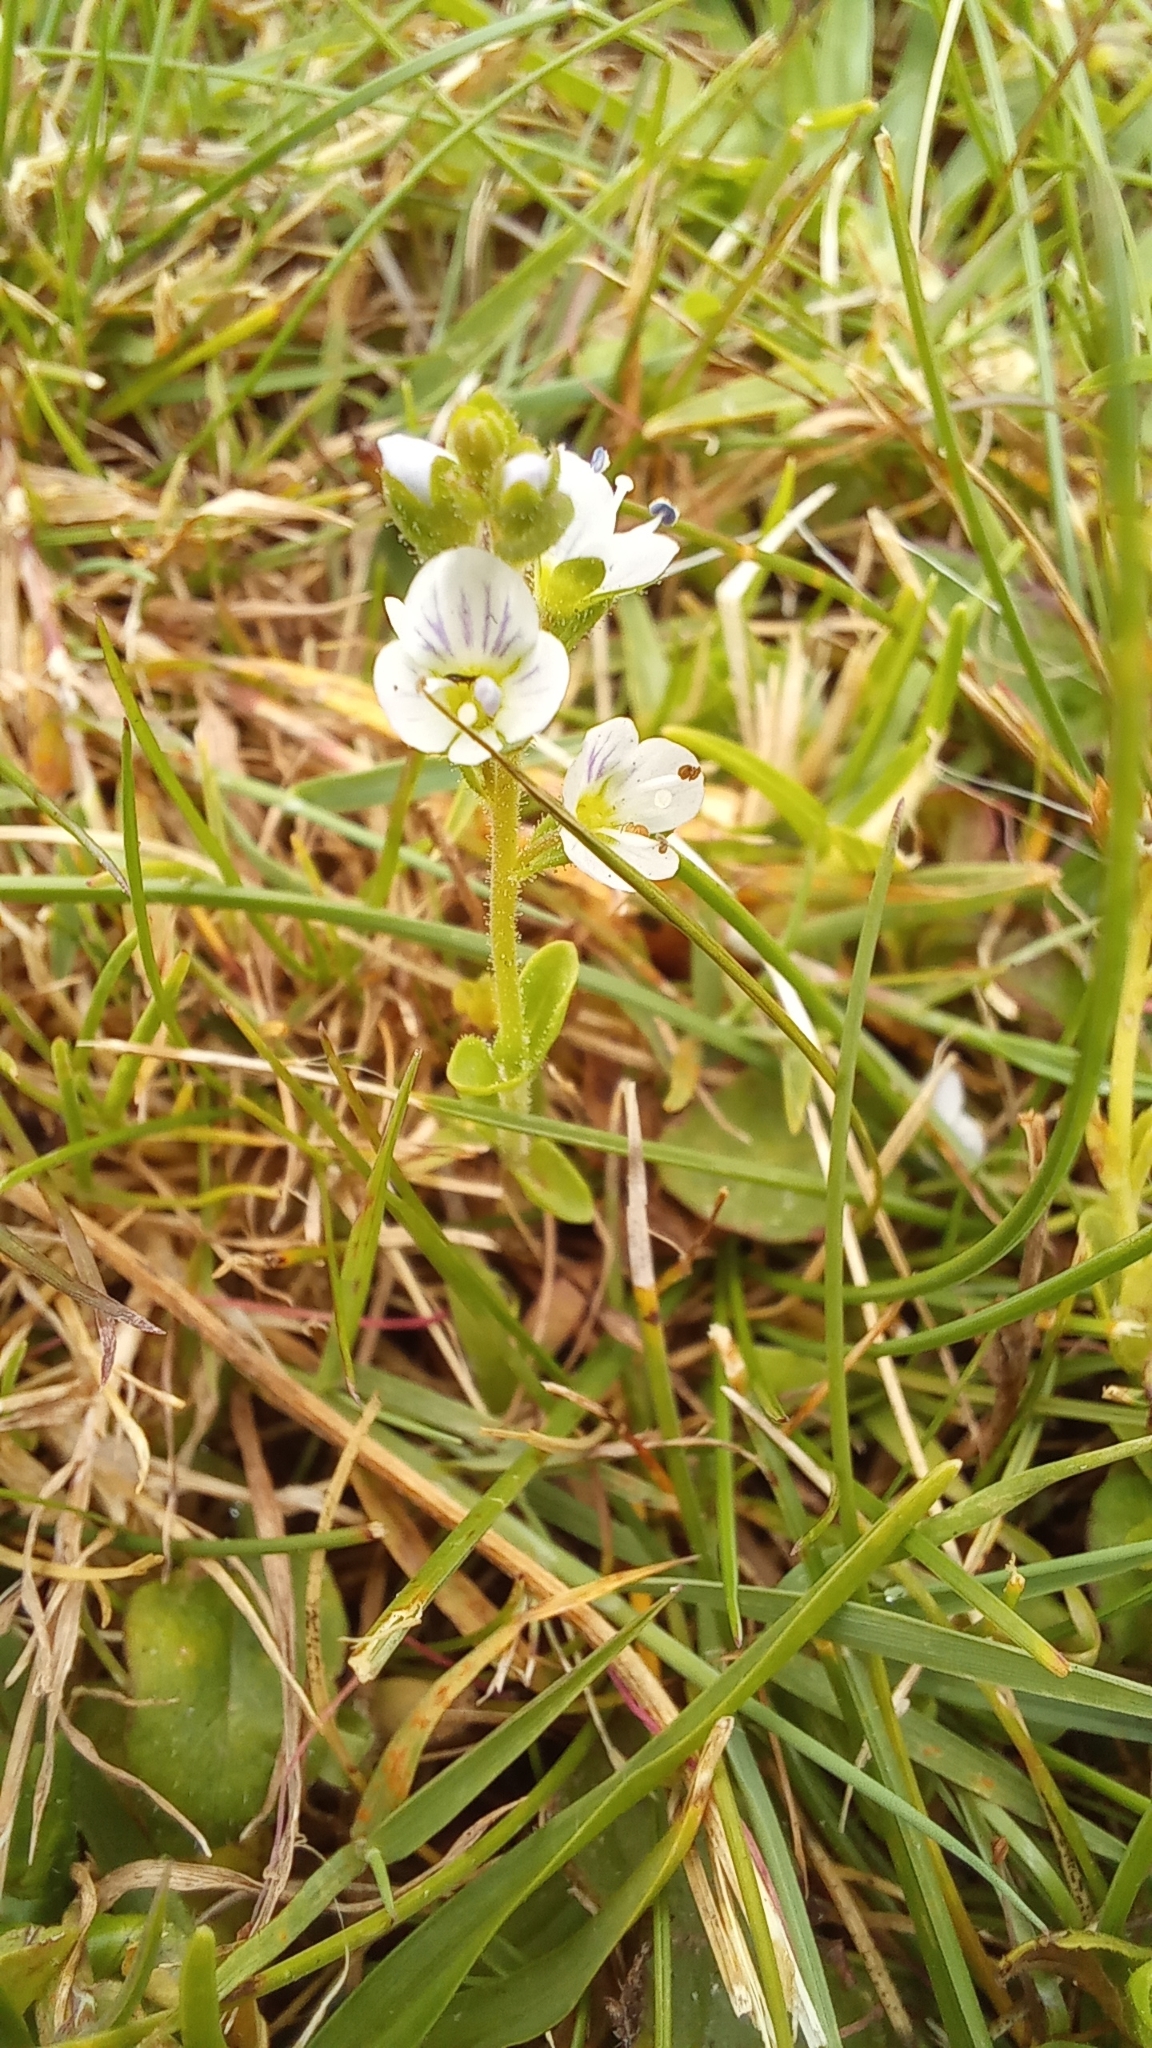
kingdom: Plantae
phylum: Tracheophyta
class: Magnoliopsida
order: Lamiales
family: Plantaginaceae
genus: Veronica
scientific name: Veronica serpyllifolia
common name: Thyme-leaved speedwell
